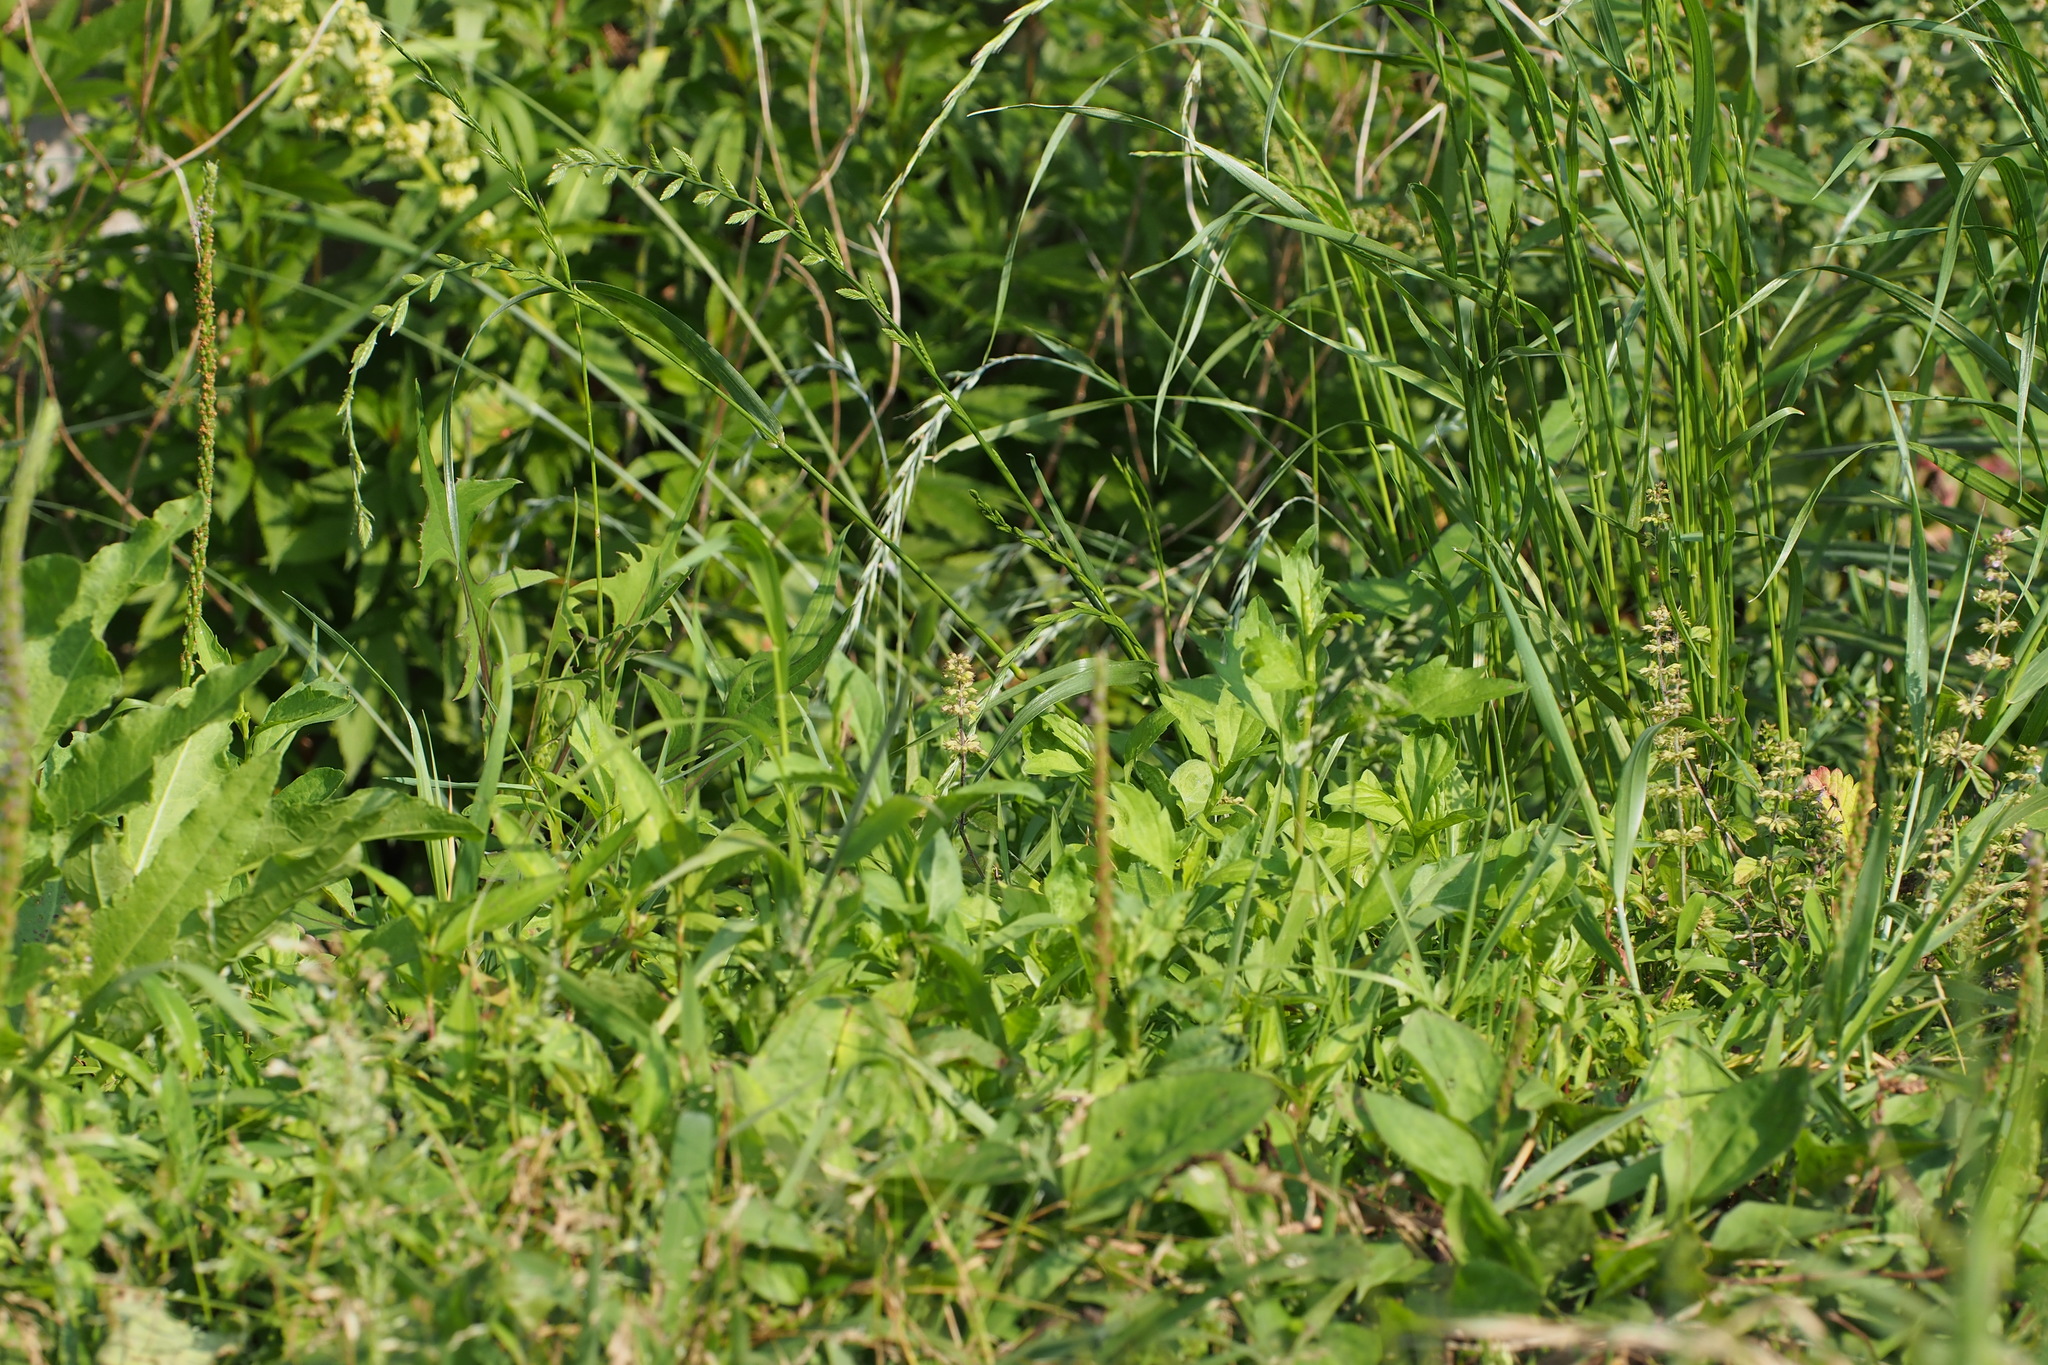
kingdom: Plantae
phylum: Tracheophyta
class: Liliopsida
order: Poales
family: Poaceae
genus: Lolium
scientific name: Lolium perenne
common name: Perennial ryegrass
